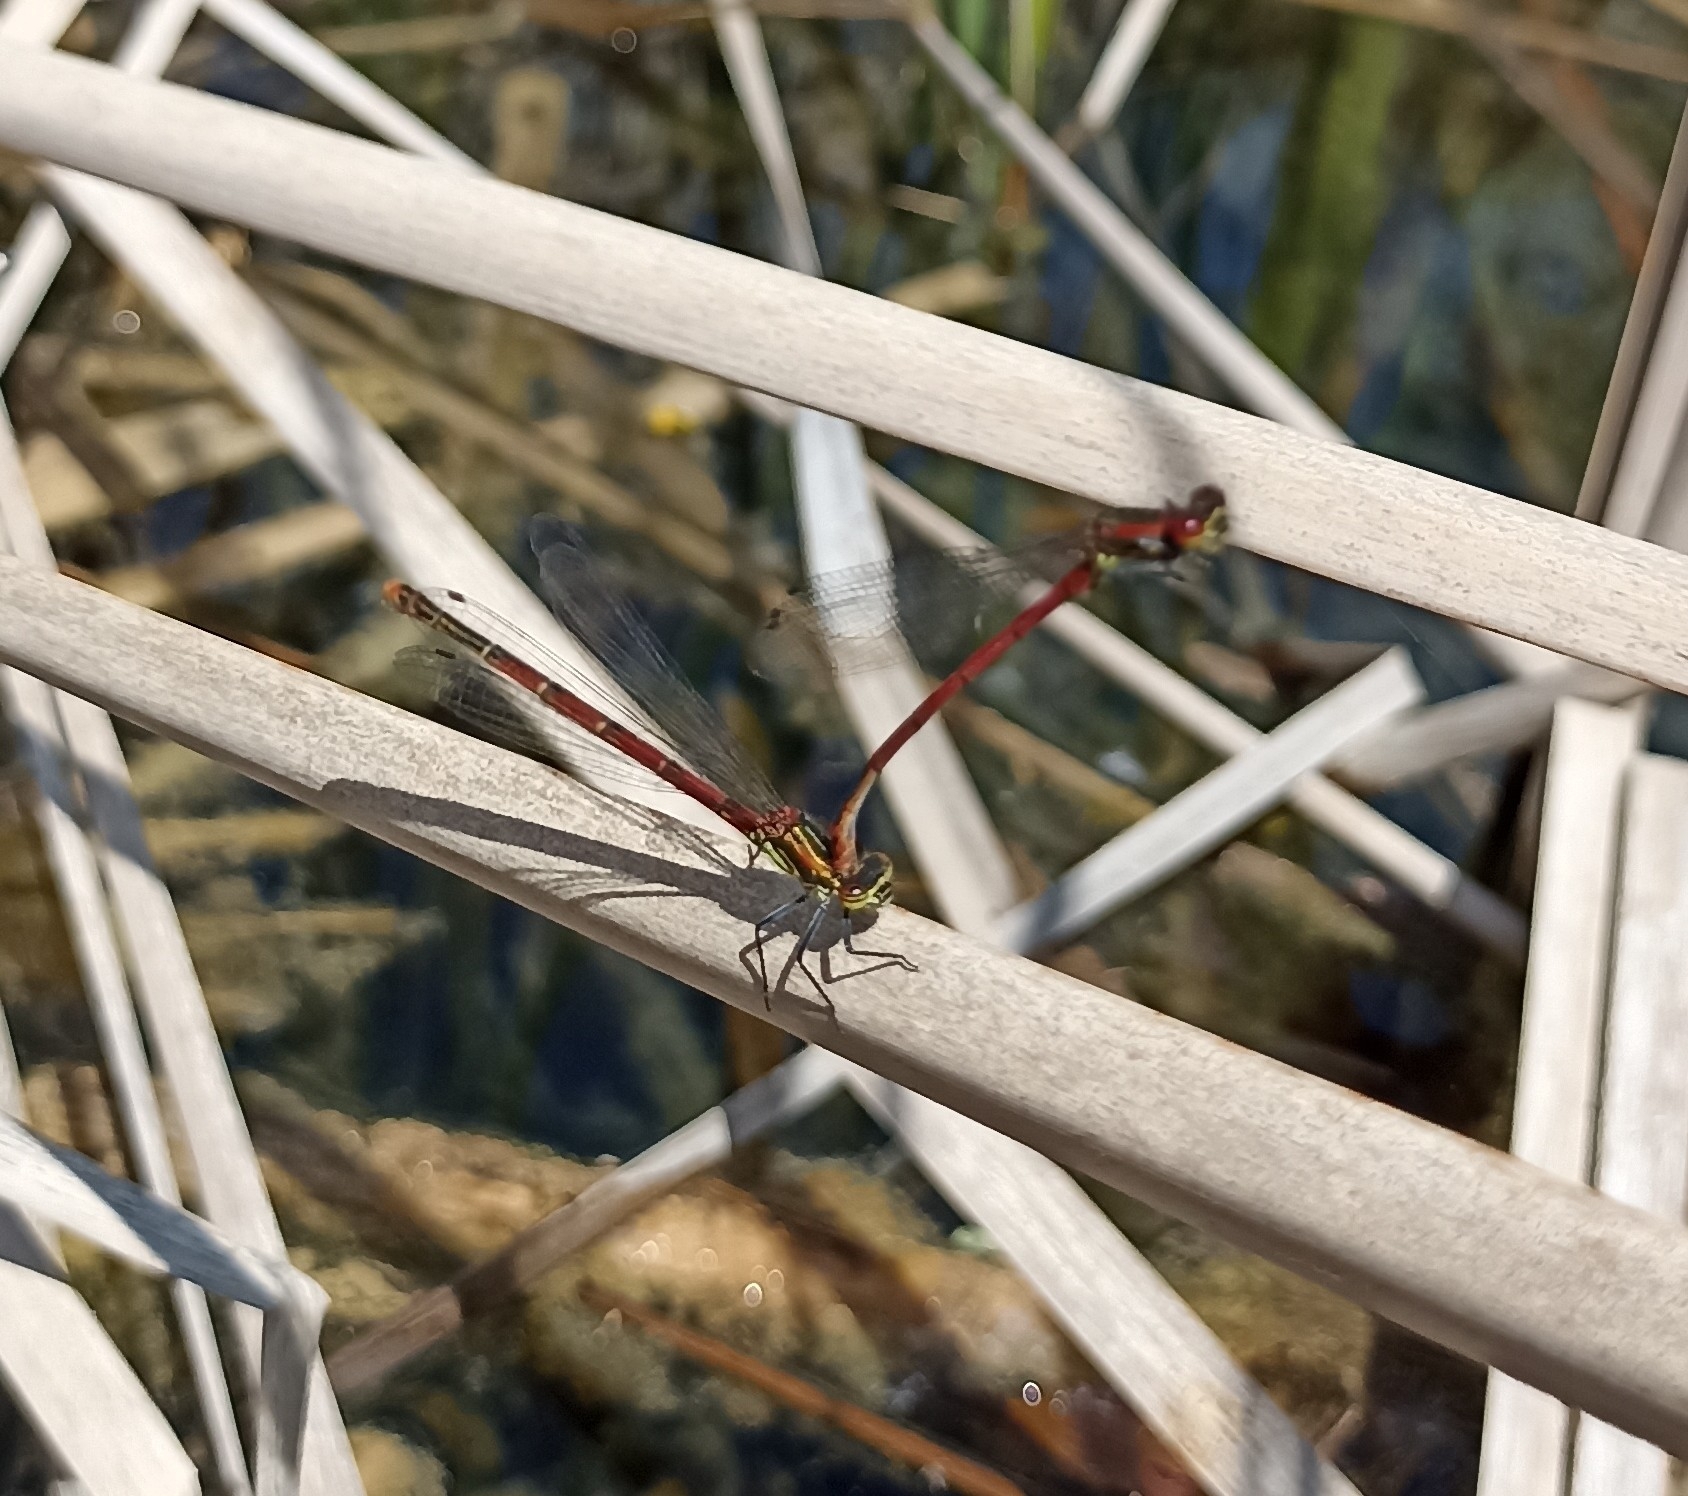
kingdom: Animalia
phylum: Arthropoda
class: Insecta
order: Odonata
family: Coenagrionidae
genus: Pyrrhosoma
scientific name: Pyrrhosoma nymphula
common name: Large red damsel
